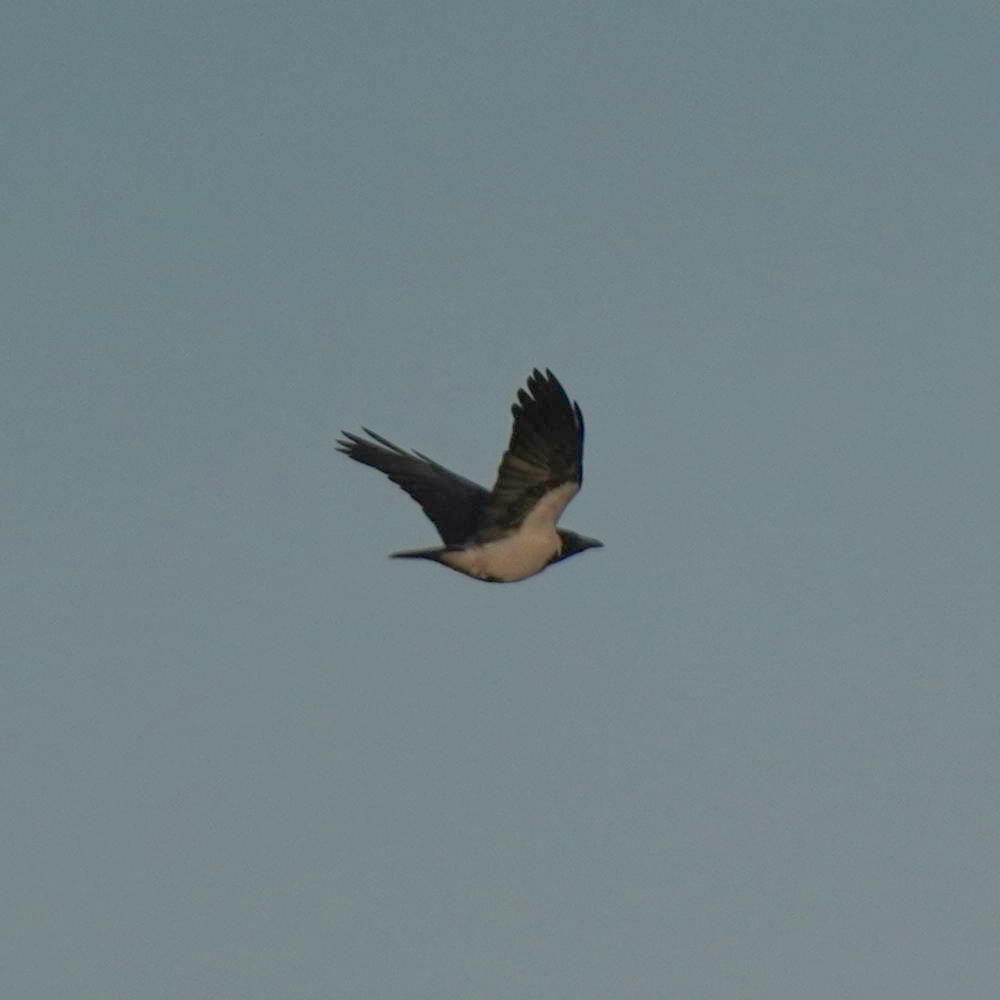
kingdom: Animalia
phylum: Chordata
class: Aves
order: Passeriformes
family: Corvidae
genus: Corvus
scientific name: Corvus cornix
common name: Hooded crow
